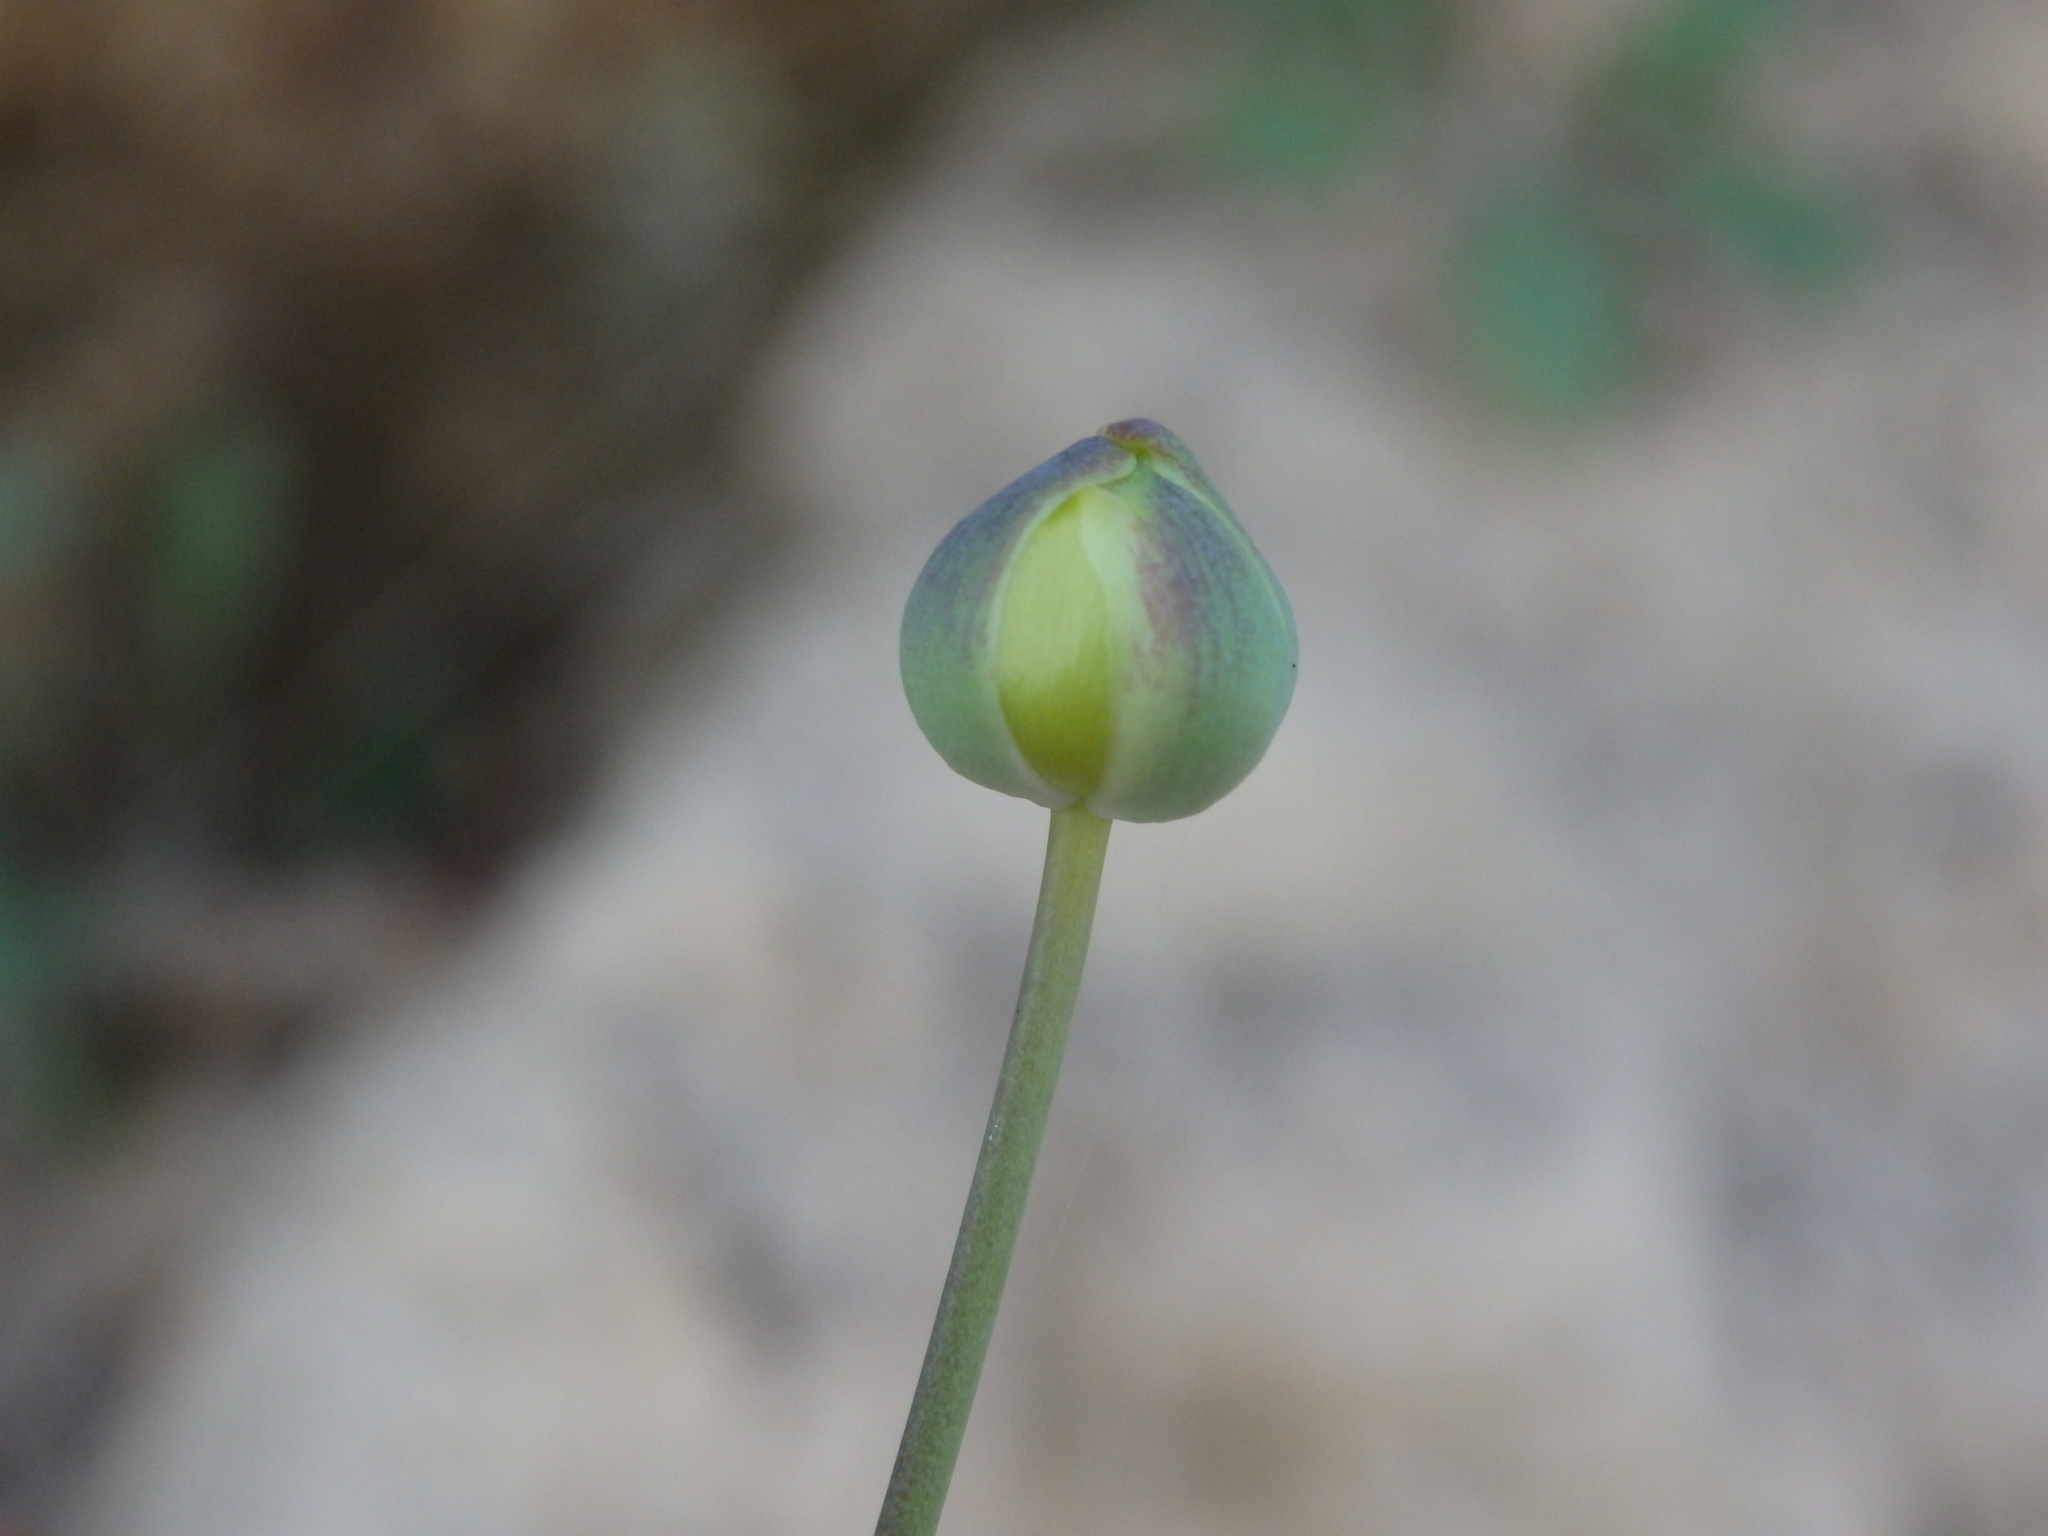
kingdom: Plantae
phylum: Tracheophyta
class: Magnoliopsida
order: Ranunculales
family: Ranunculaceae
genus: Ranunculus
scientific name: Ranunculus bupleuroides
